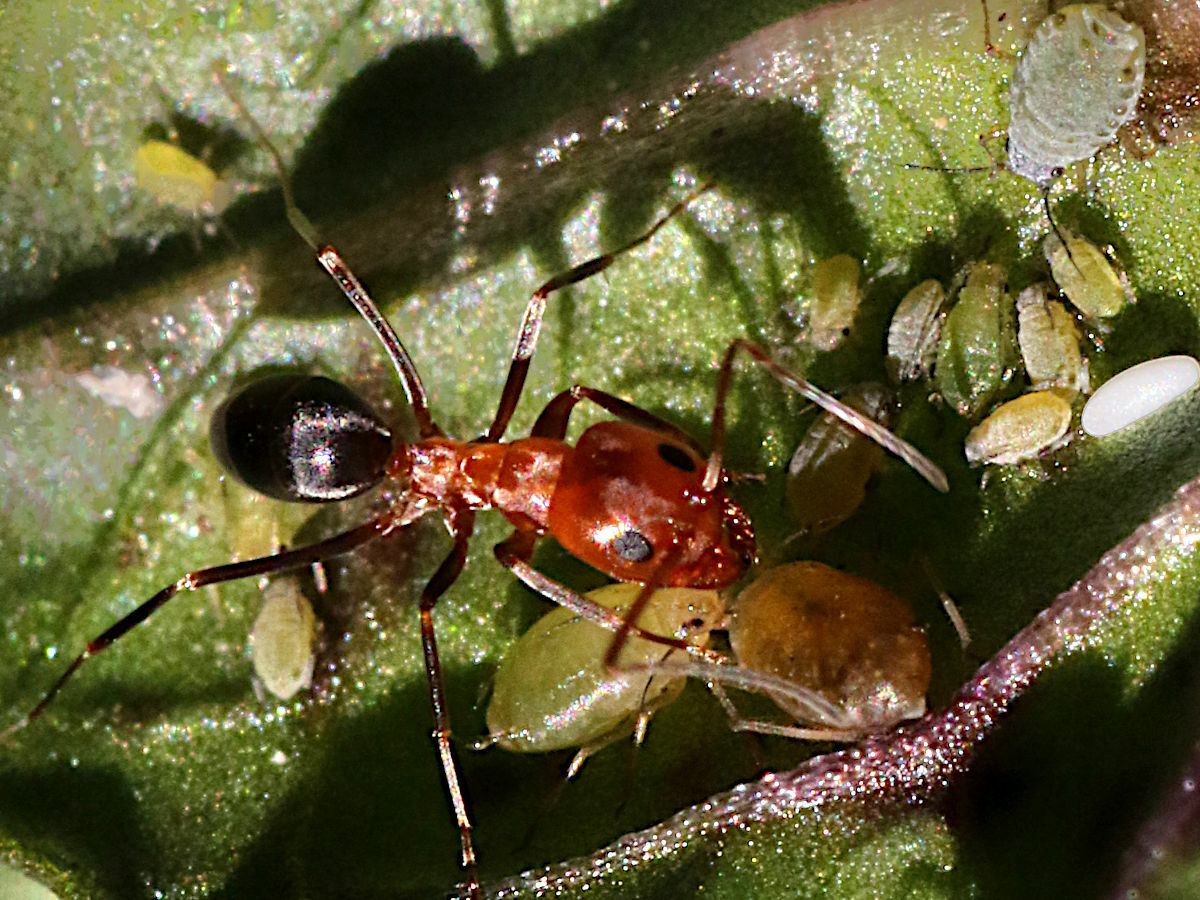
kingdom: Animalia
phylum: Arthropoda
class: Insecta
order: Hymenoptera
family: Formicidae
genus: Dorymyrmex
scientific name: Dorymyrmex bicolor
